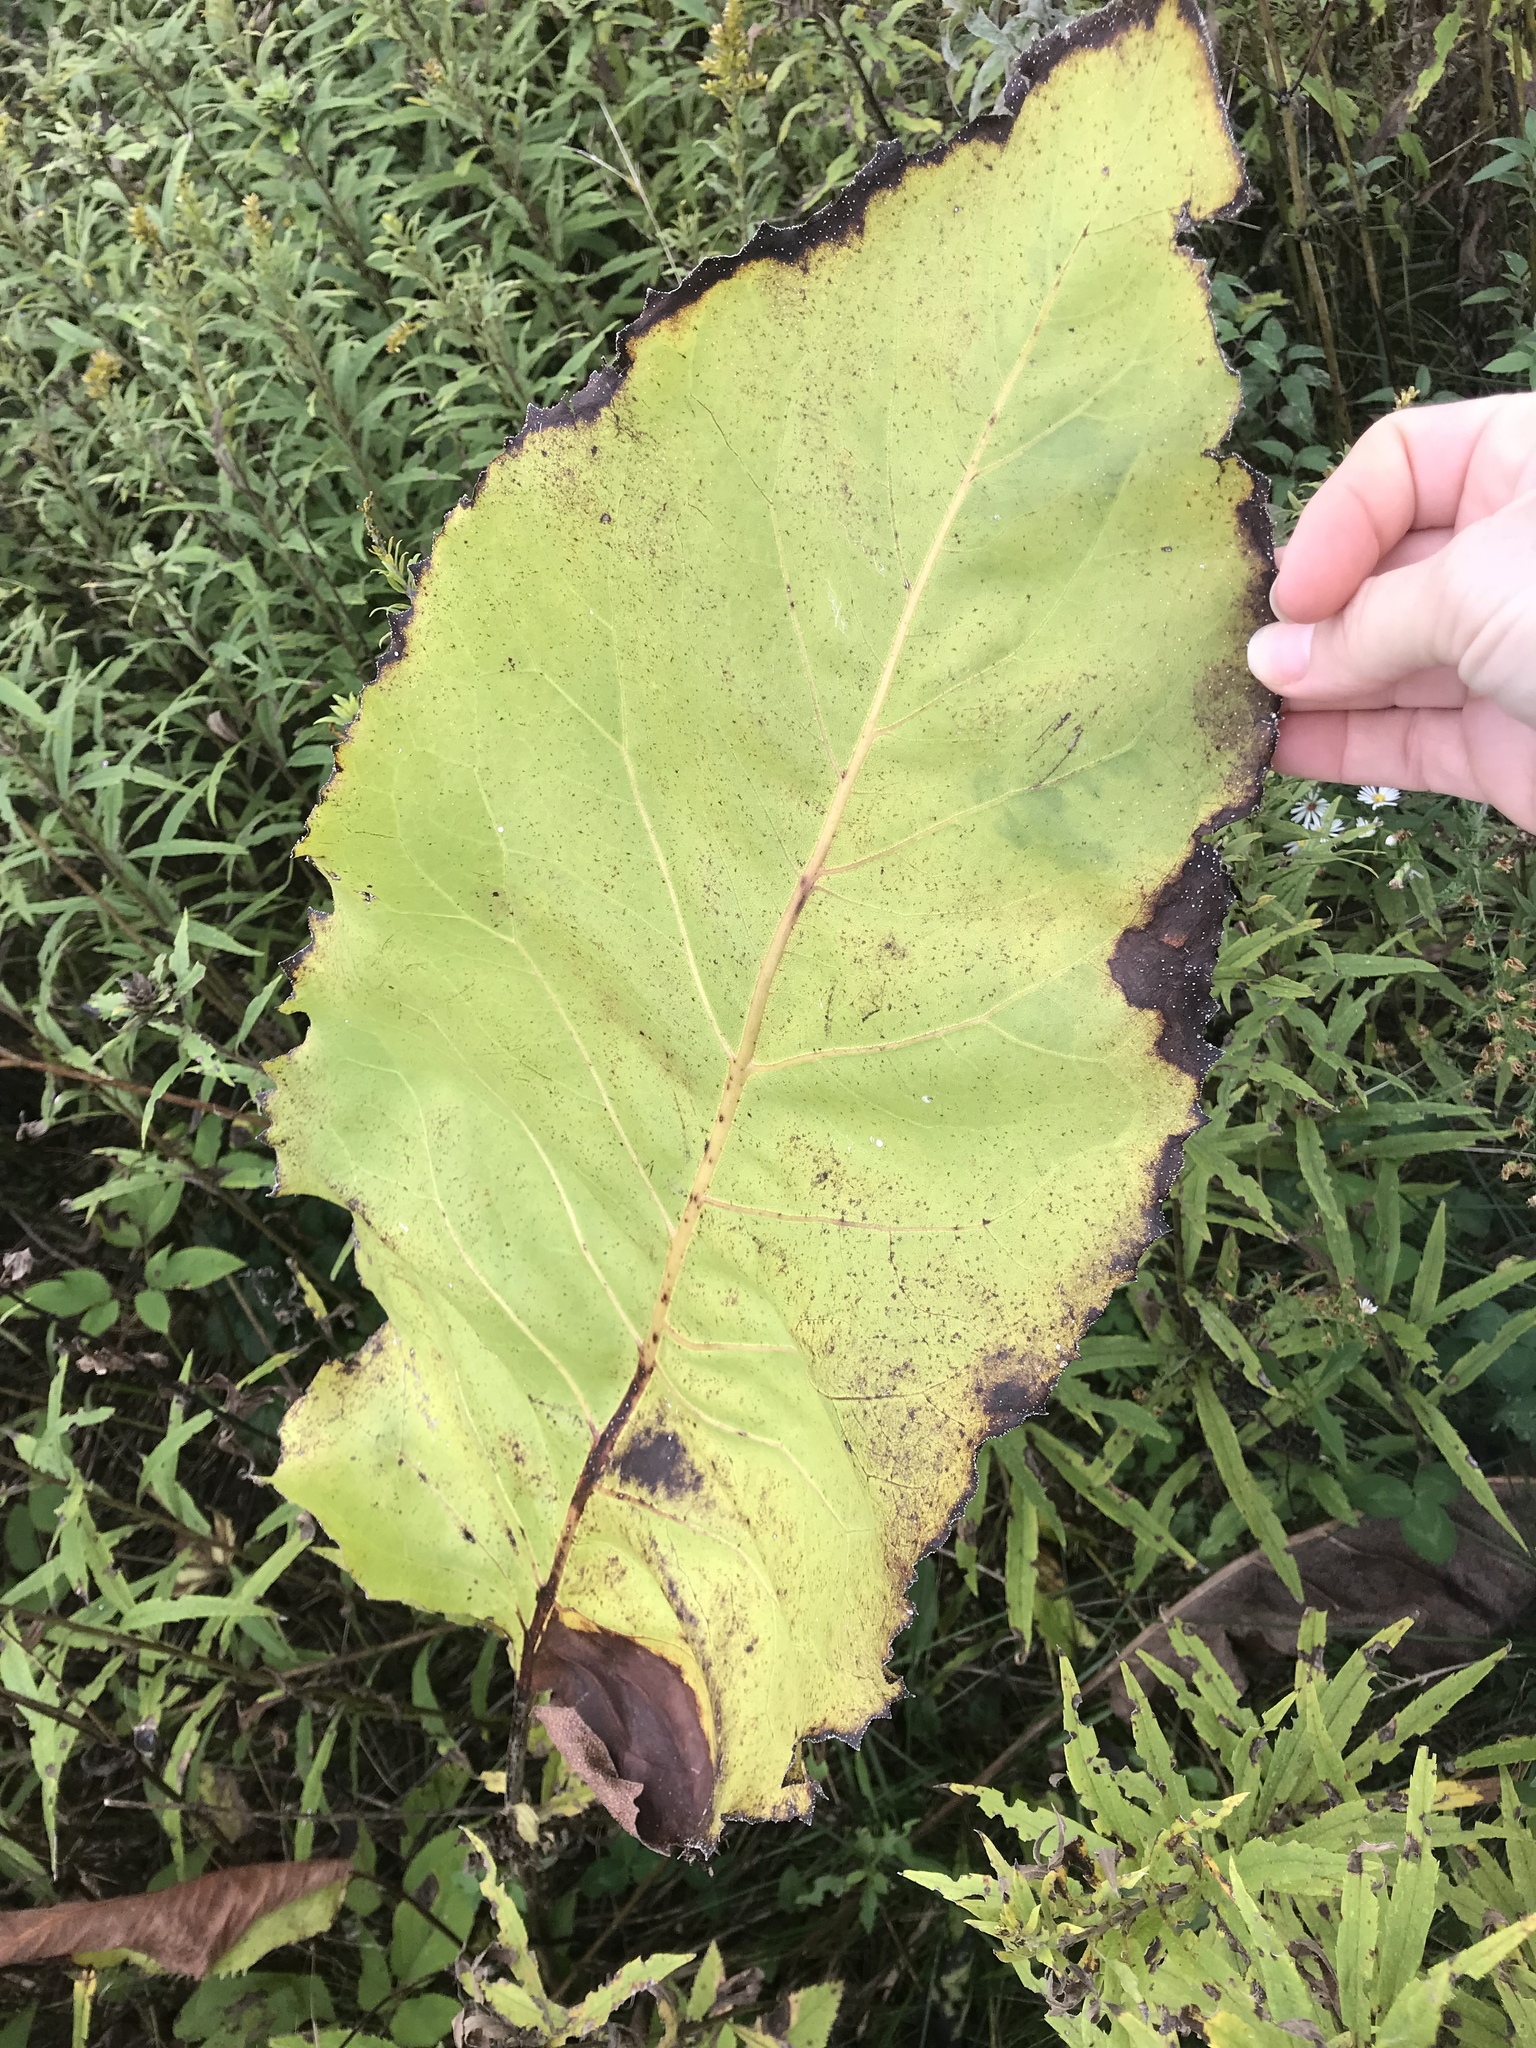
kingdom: Plantae
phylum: Tracheophyta
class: Magnoliopsida
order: Asterales
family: Asteraceae
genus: Silphium
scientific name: Silphium terebinthinaceum
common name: Basal-leaf rosinweed
